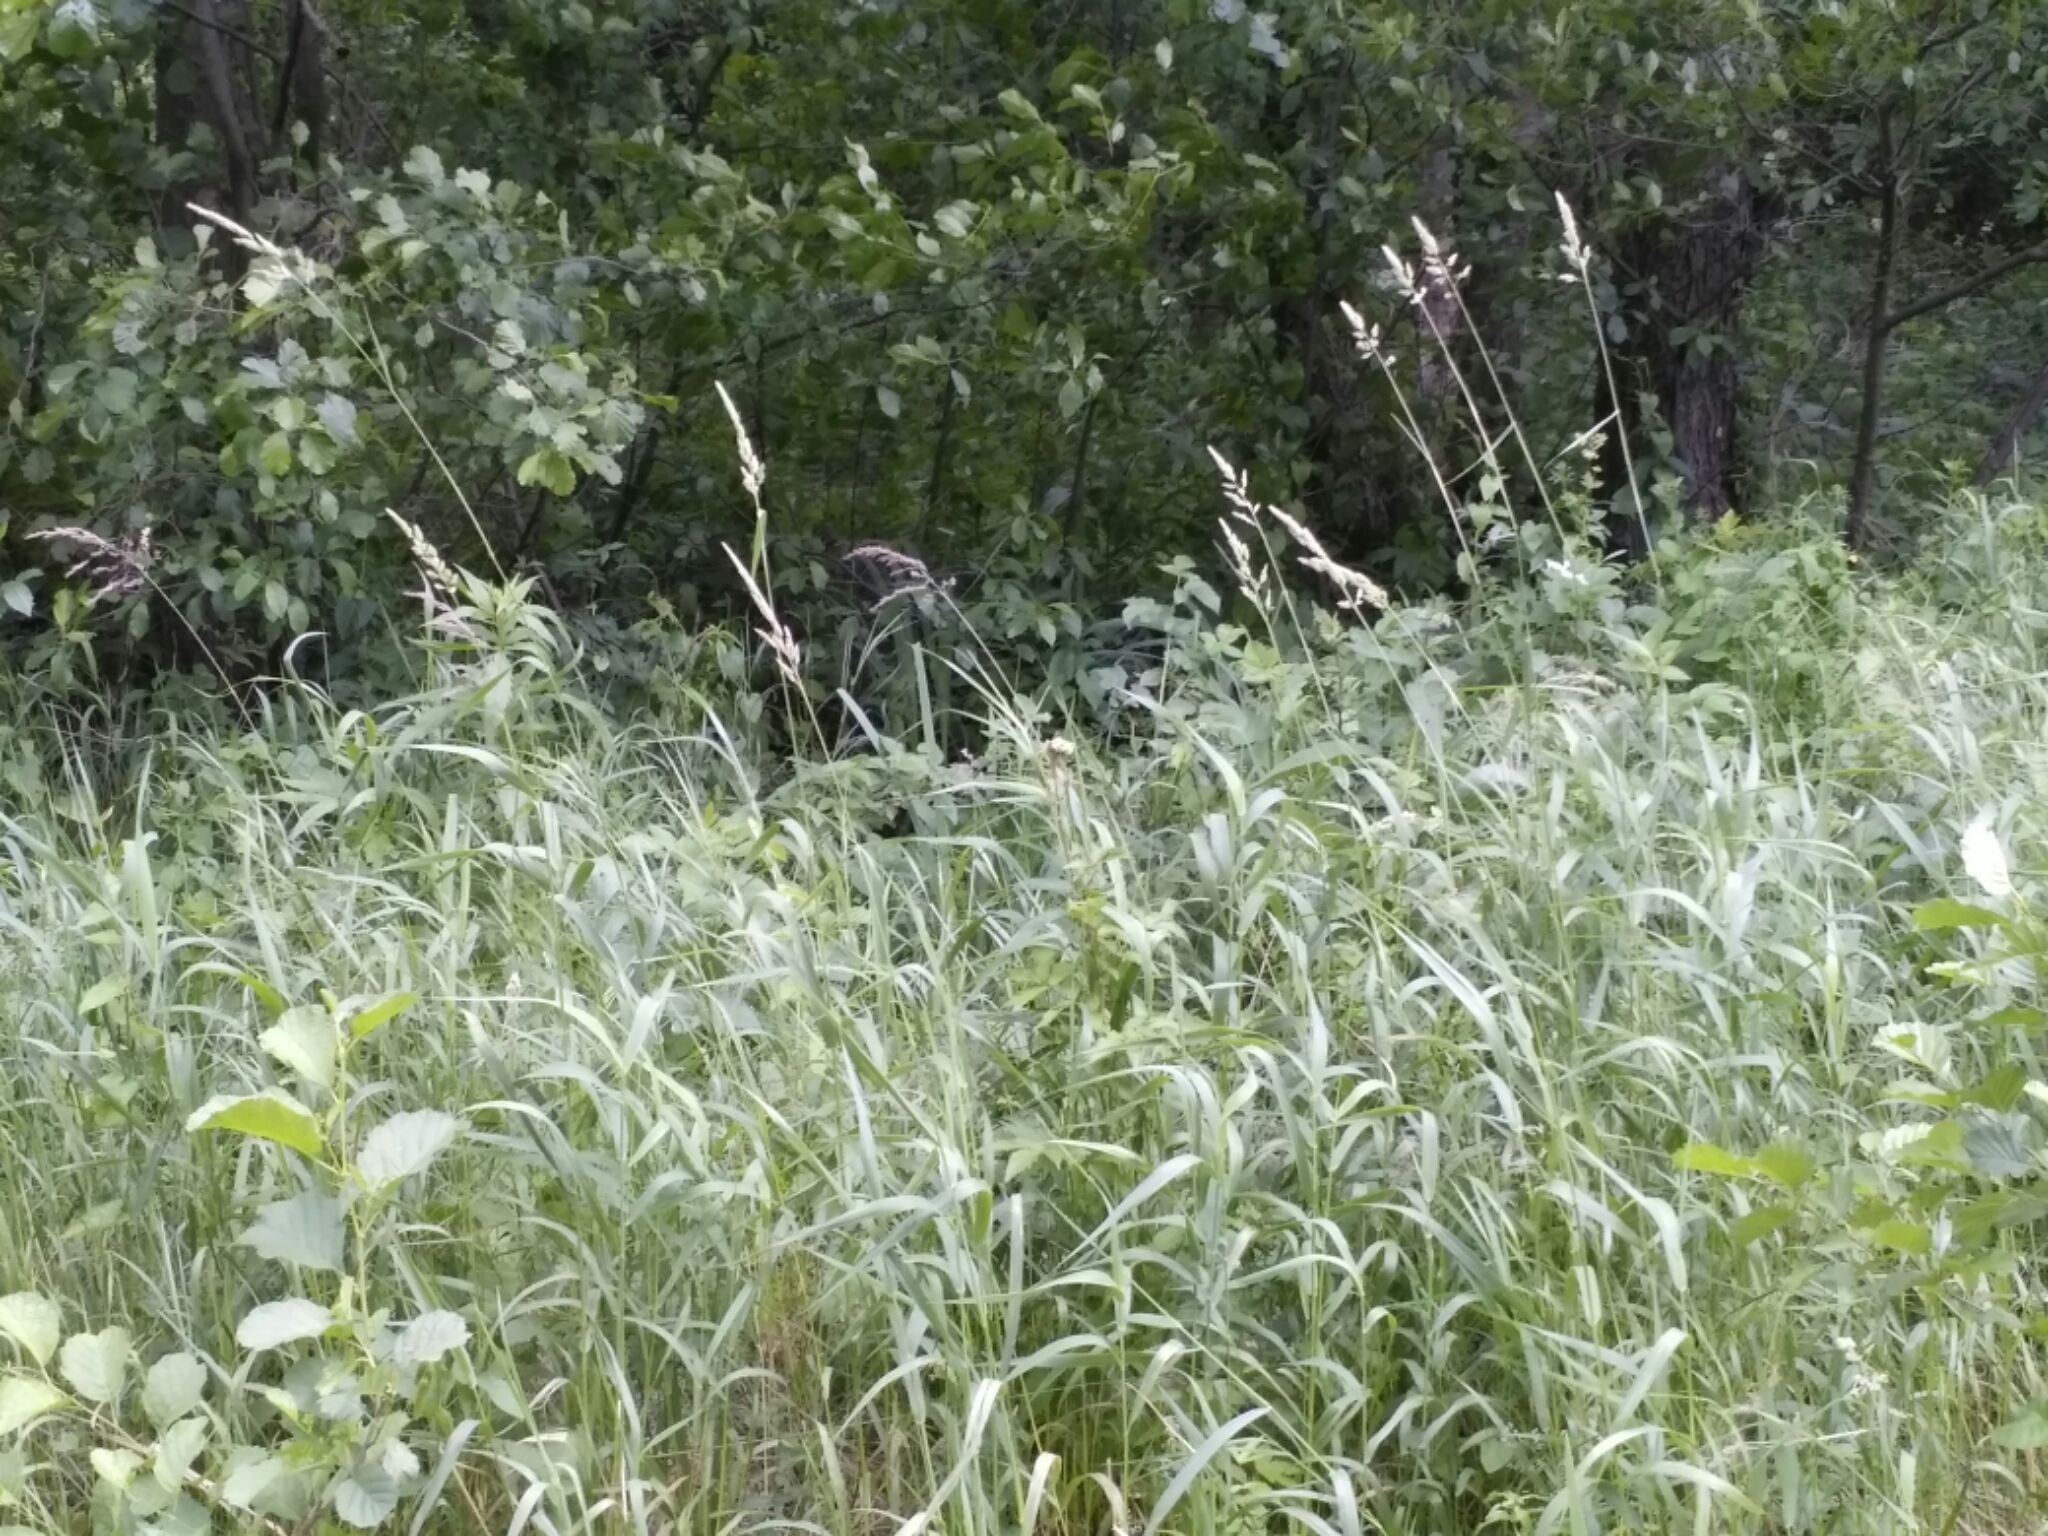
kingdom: Plantae
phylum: Tracheophyta
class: Liliopsida
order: Poales
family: Poaceae
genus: Phalaris
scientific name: Phalaris arundinacea
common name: Reed canary-grass
